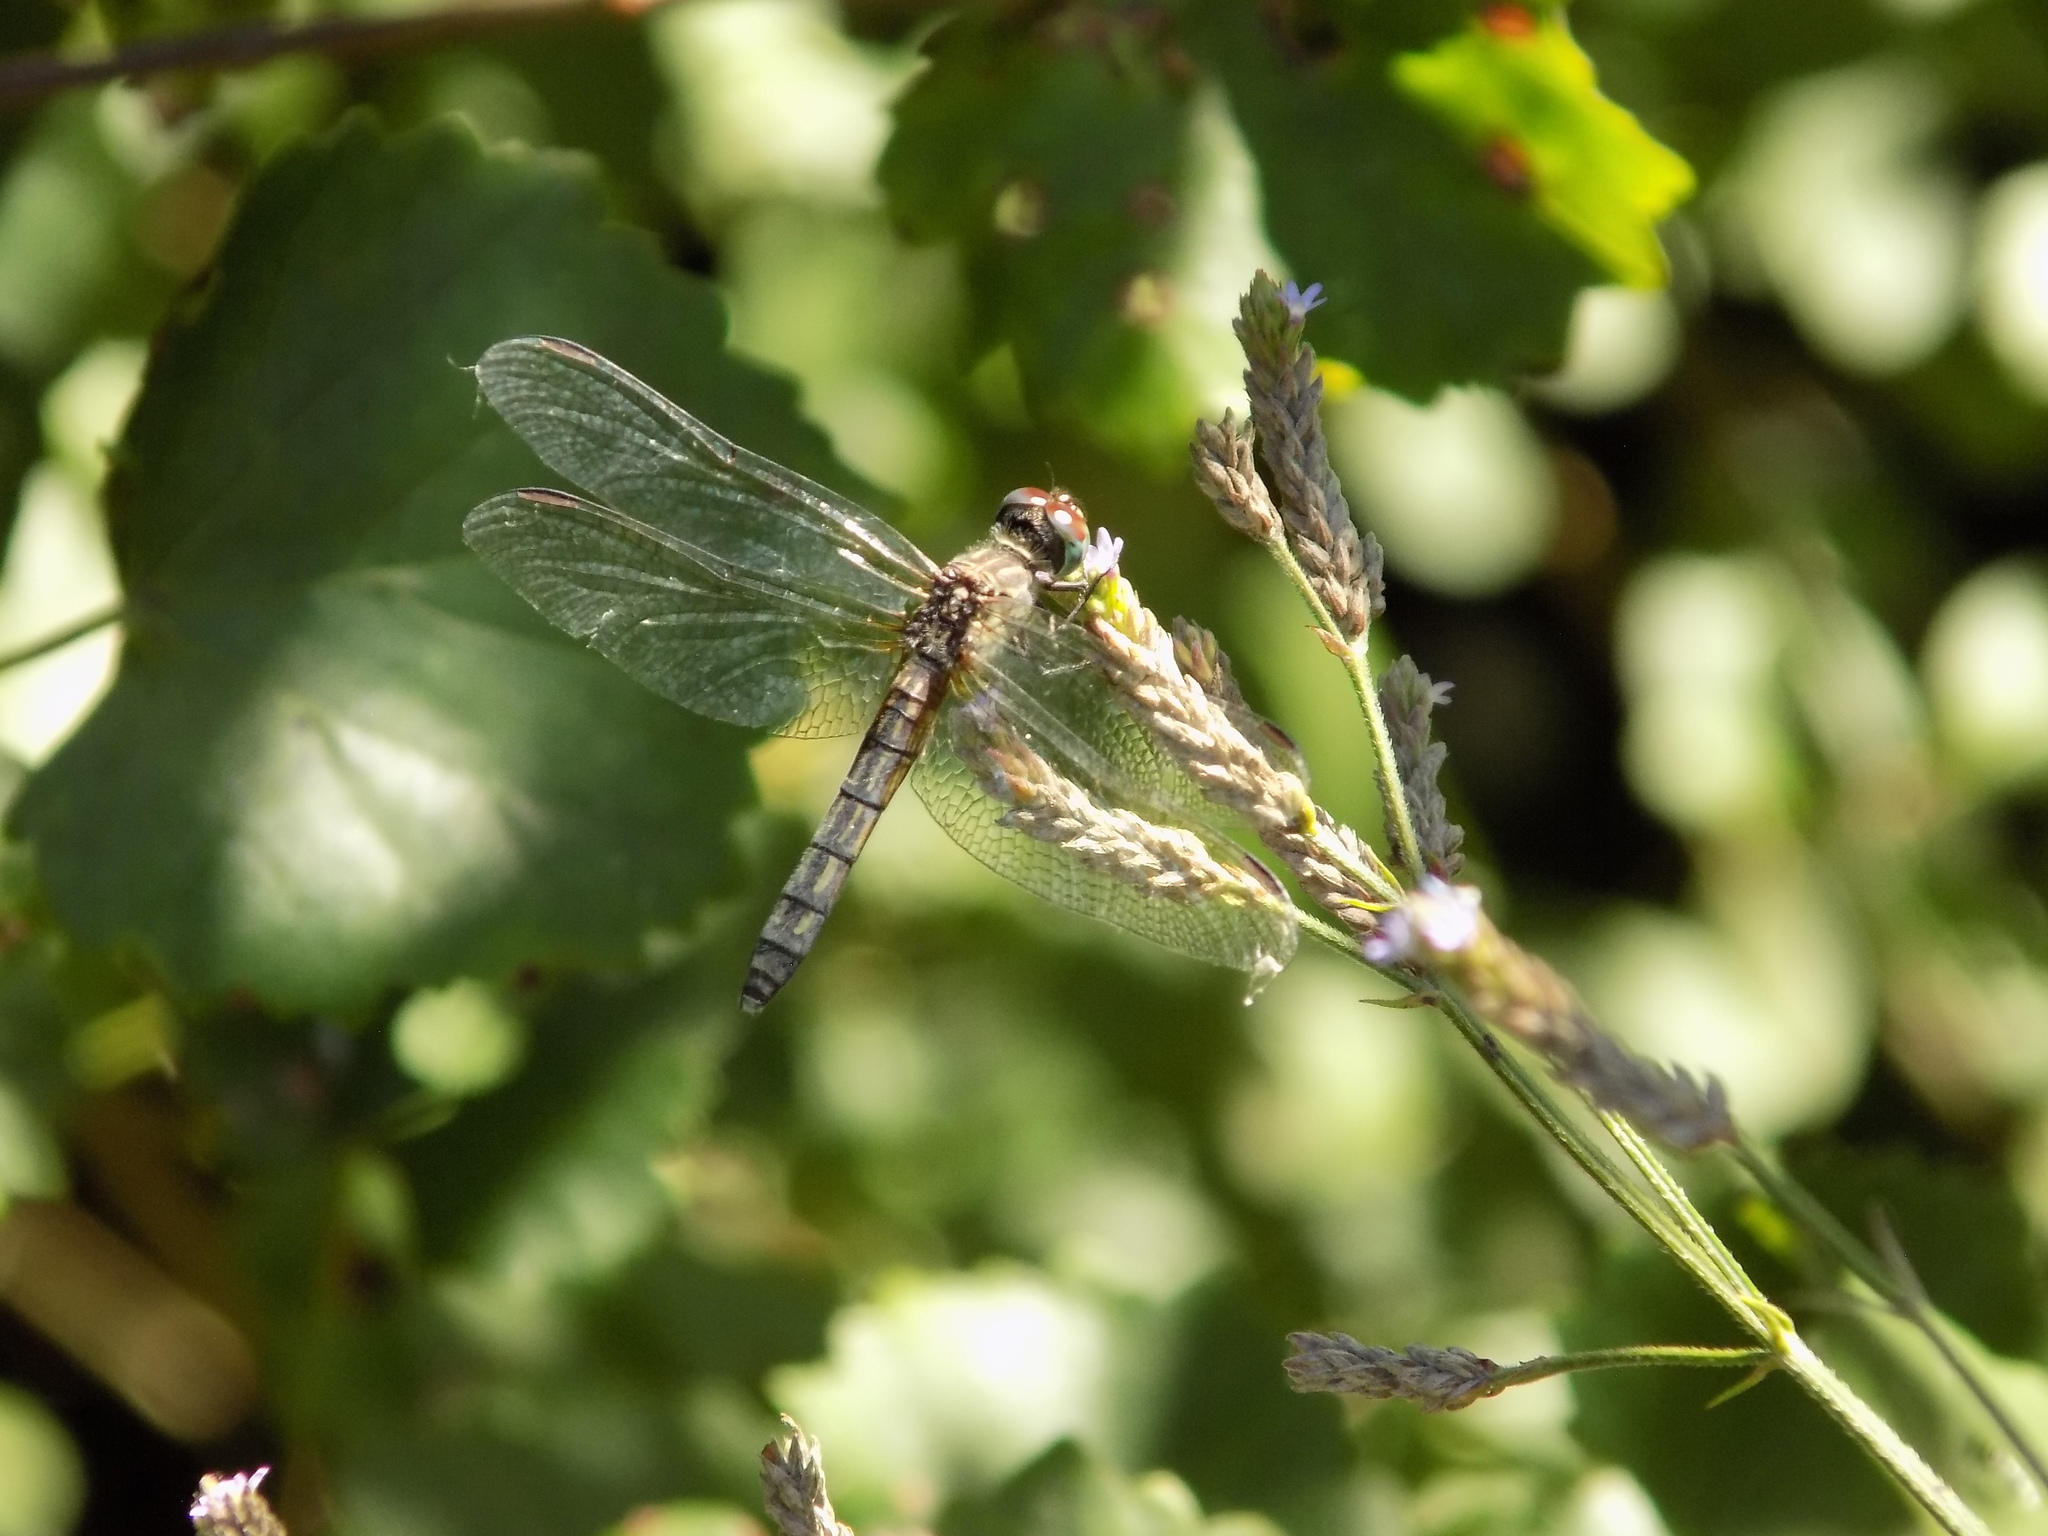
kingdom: Animalia
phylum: Arthropoda
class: Insecta
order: Odonata
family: Libellulidae
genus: Pachydiplax
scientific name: Pachydiplax longipennis
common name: Blue dasher
